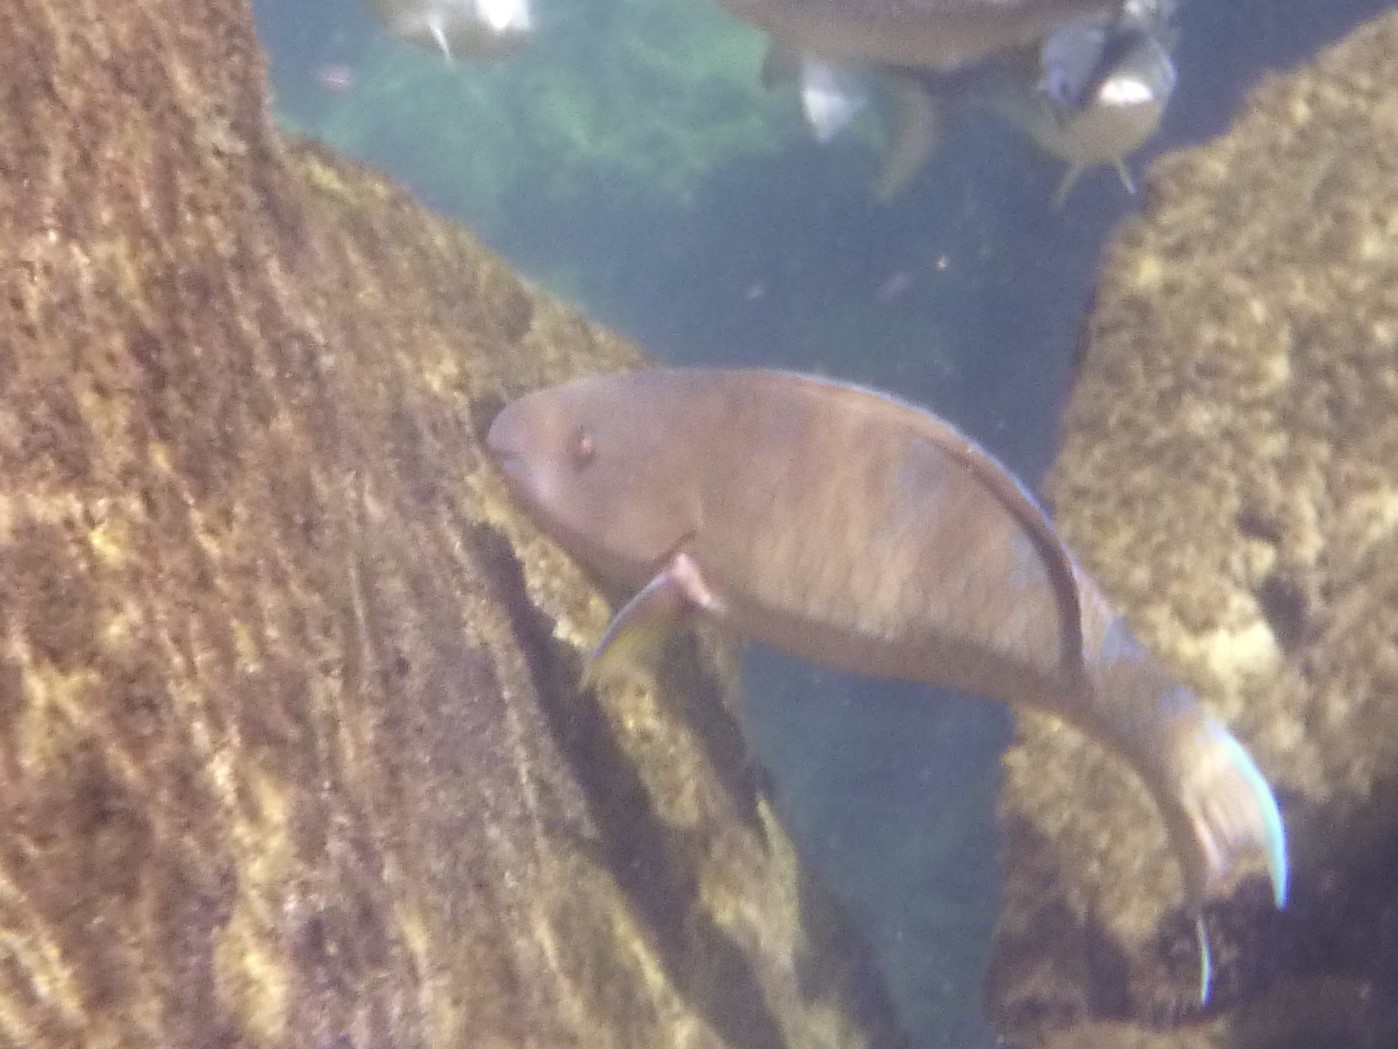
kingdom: Animalia
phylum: Chordata
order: Perciformes
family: Scaridae
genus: Scarus
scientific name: Scarus ghobban
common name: Blue-barred parrotfish
